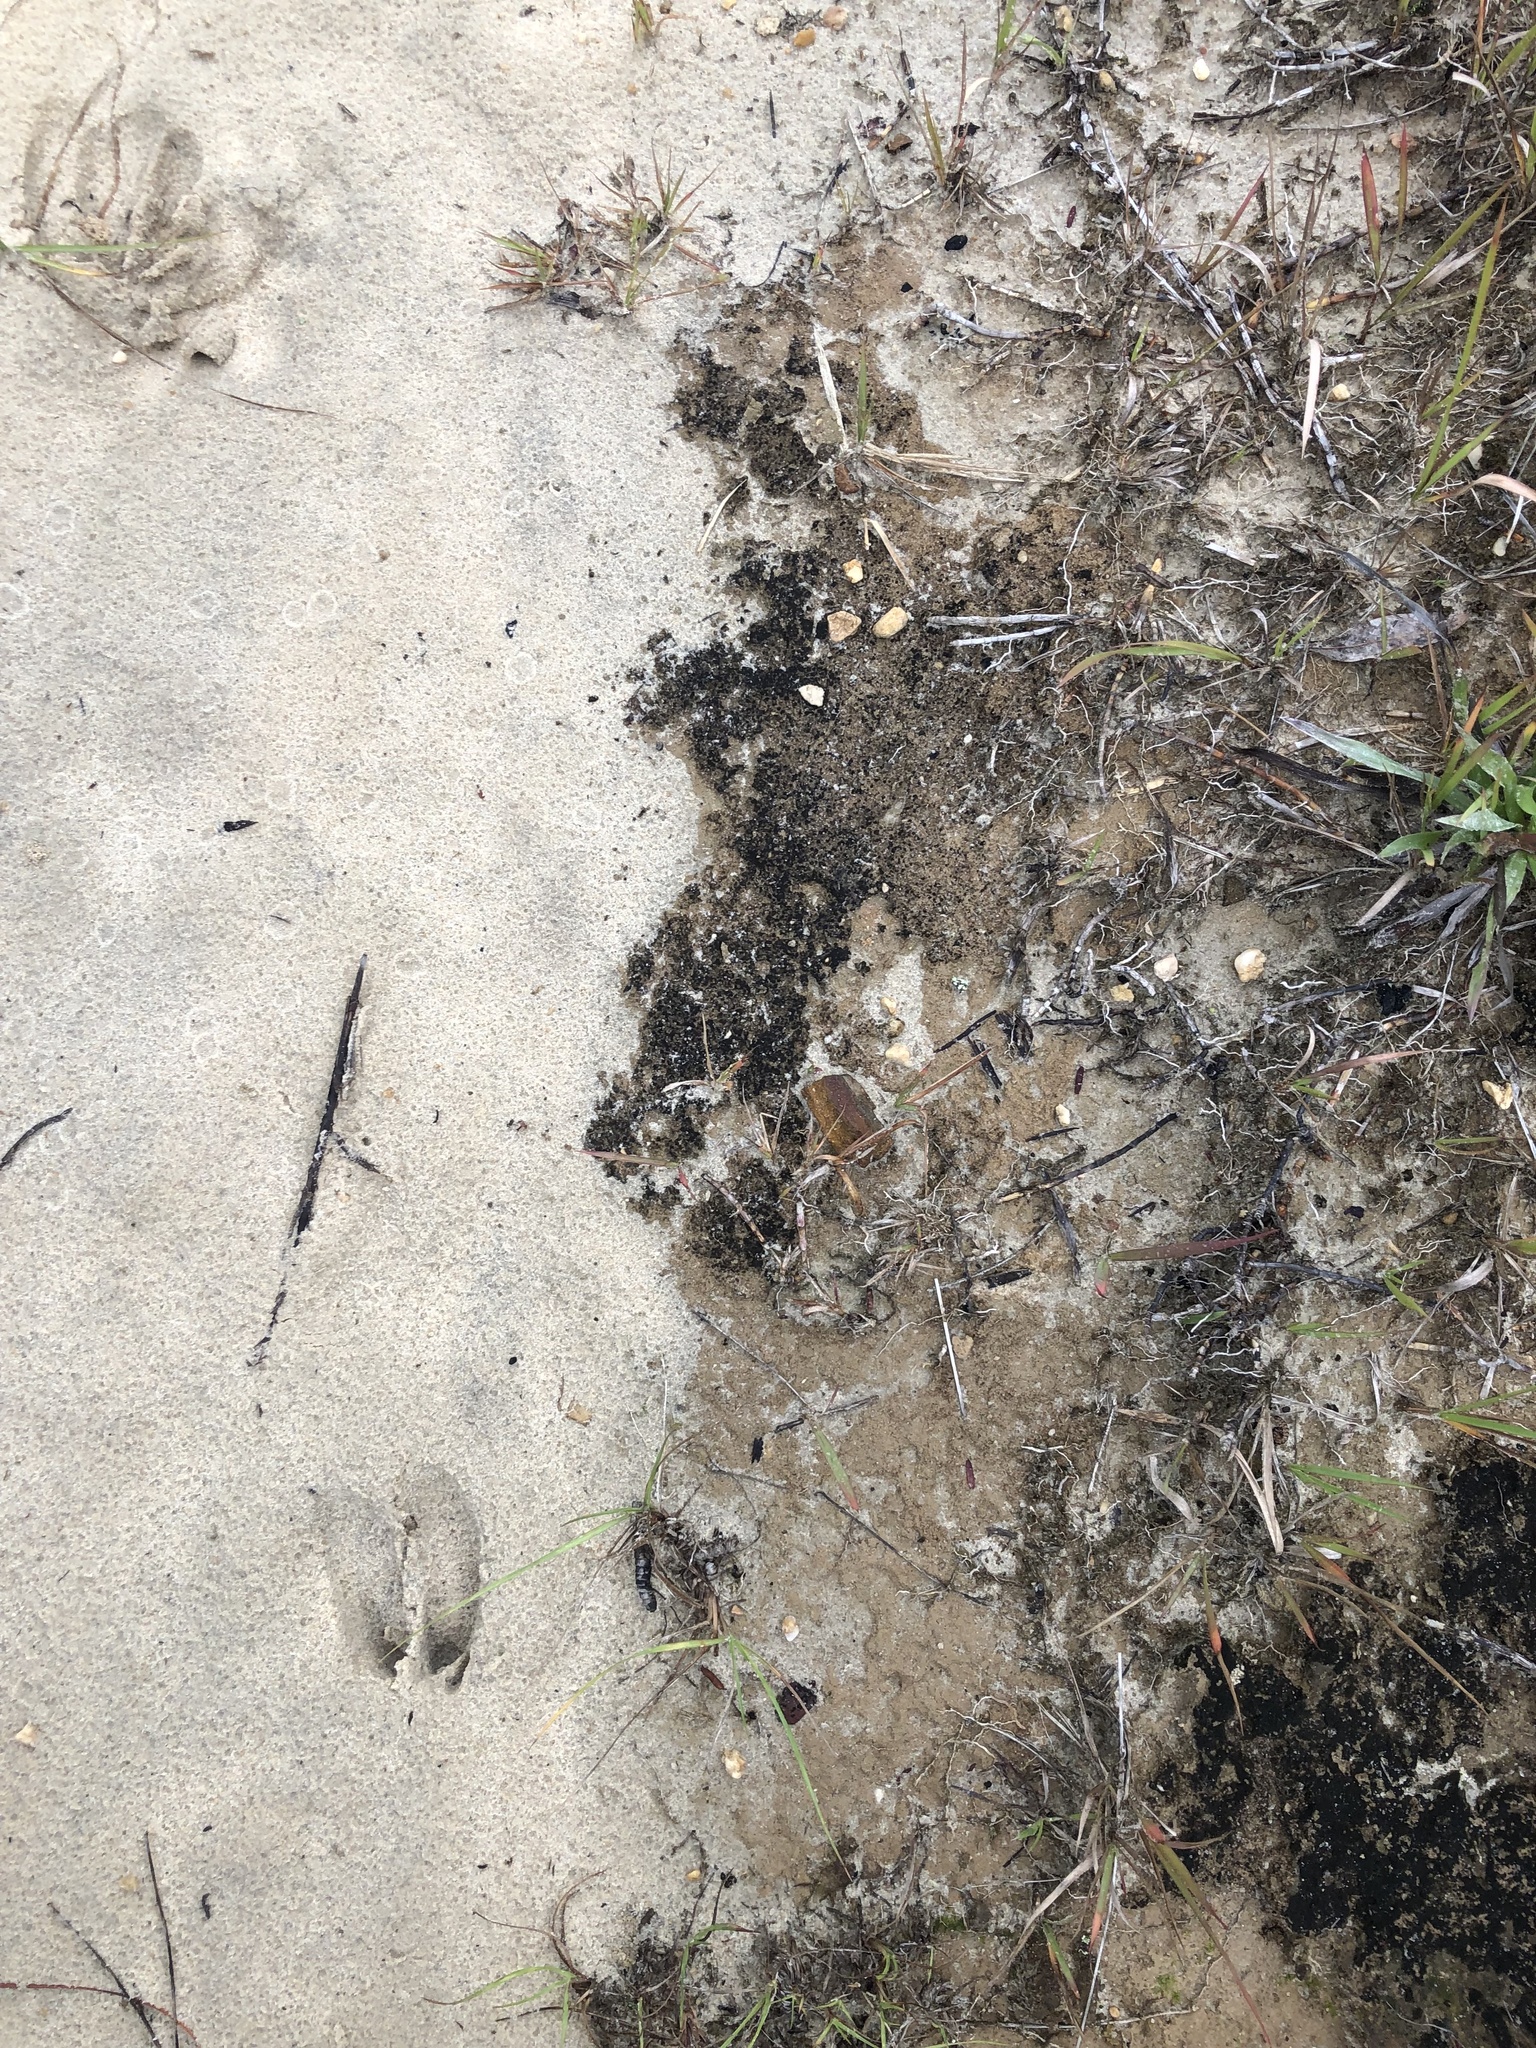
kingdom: Animalia
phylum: Chordata
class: Mammalia
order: Artiodactyla
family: Cervidae
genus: Odocoileus
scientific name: Odocoileus virginianus
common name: White-tailed deer
